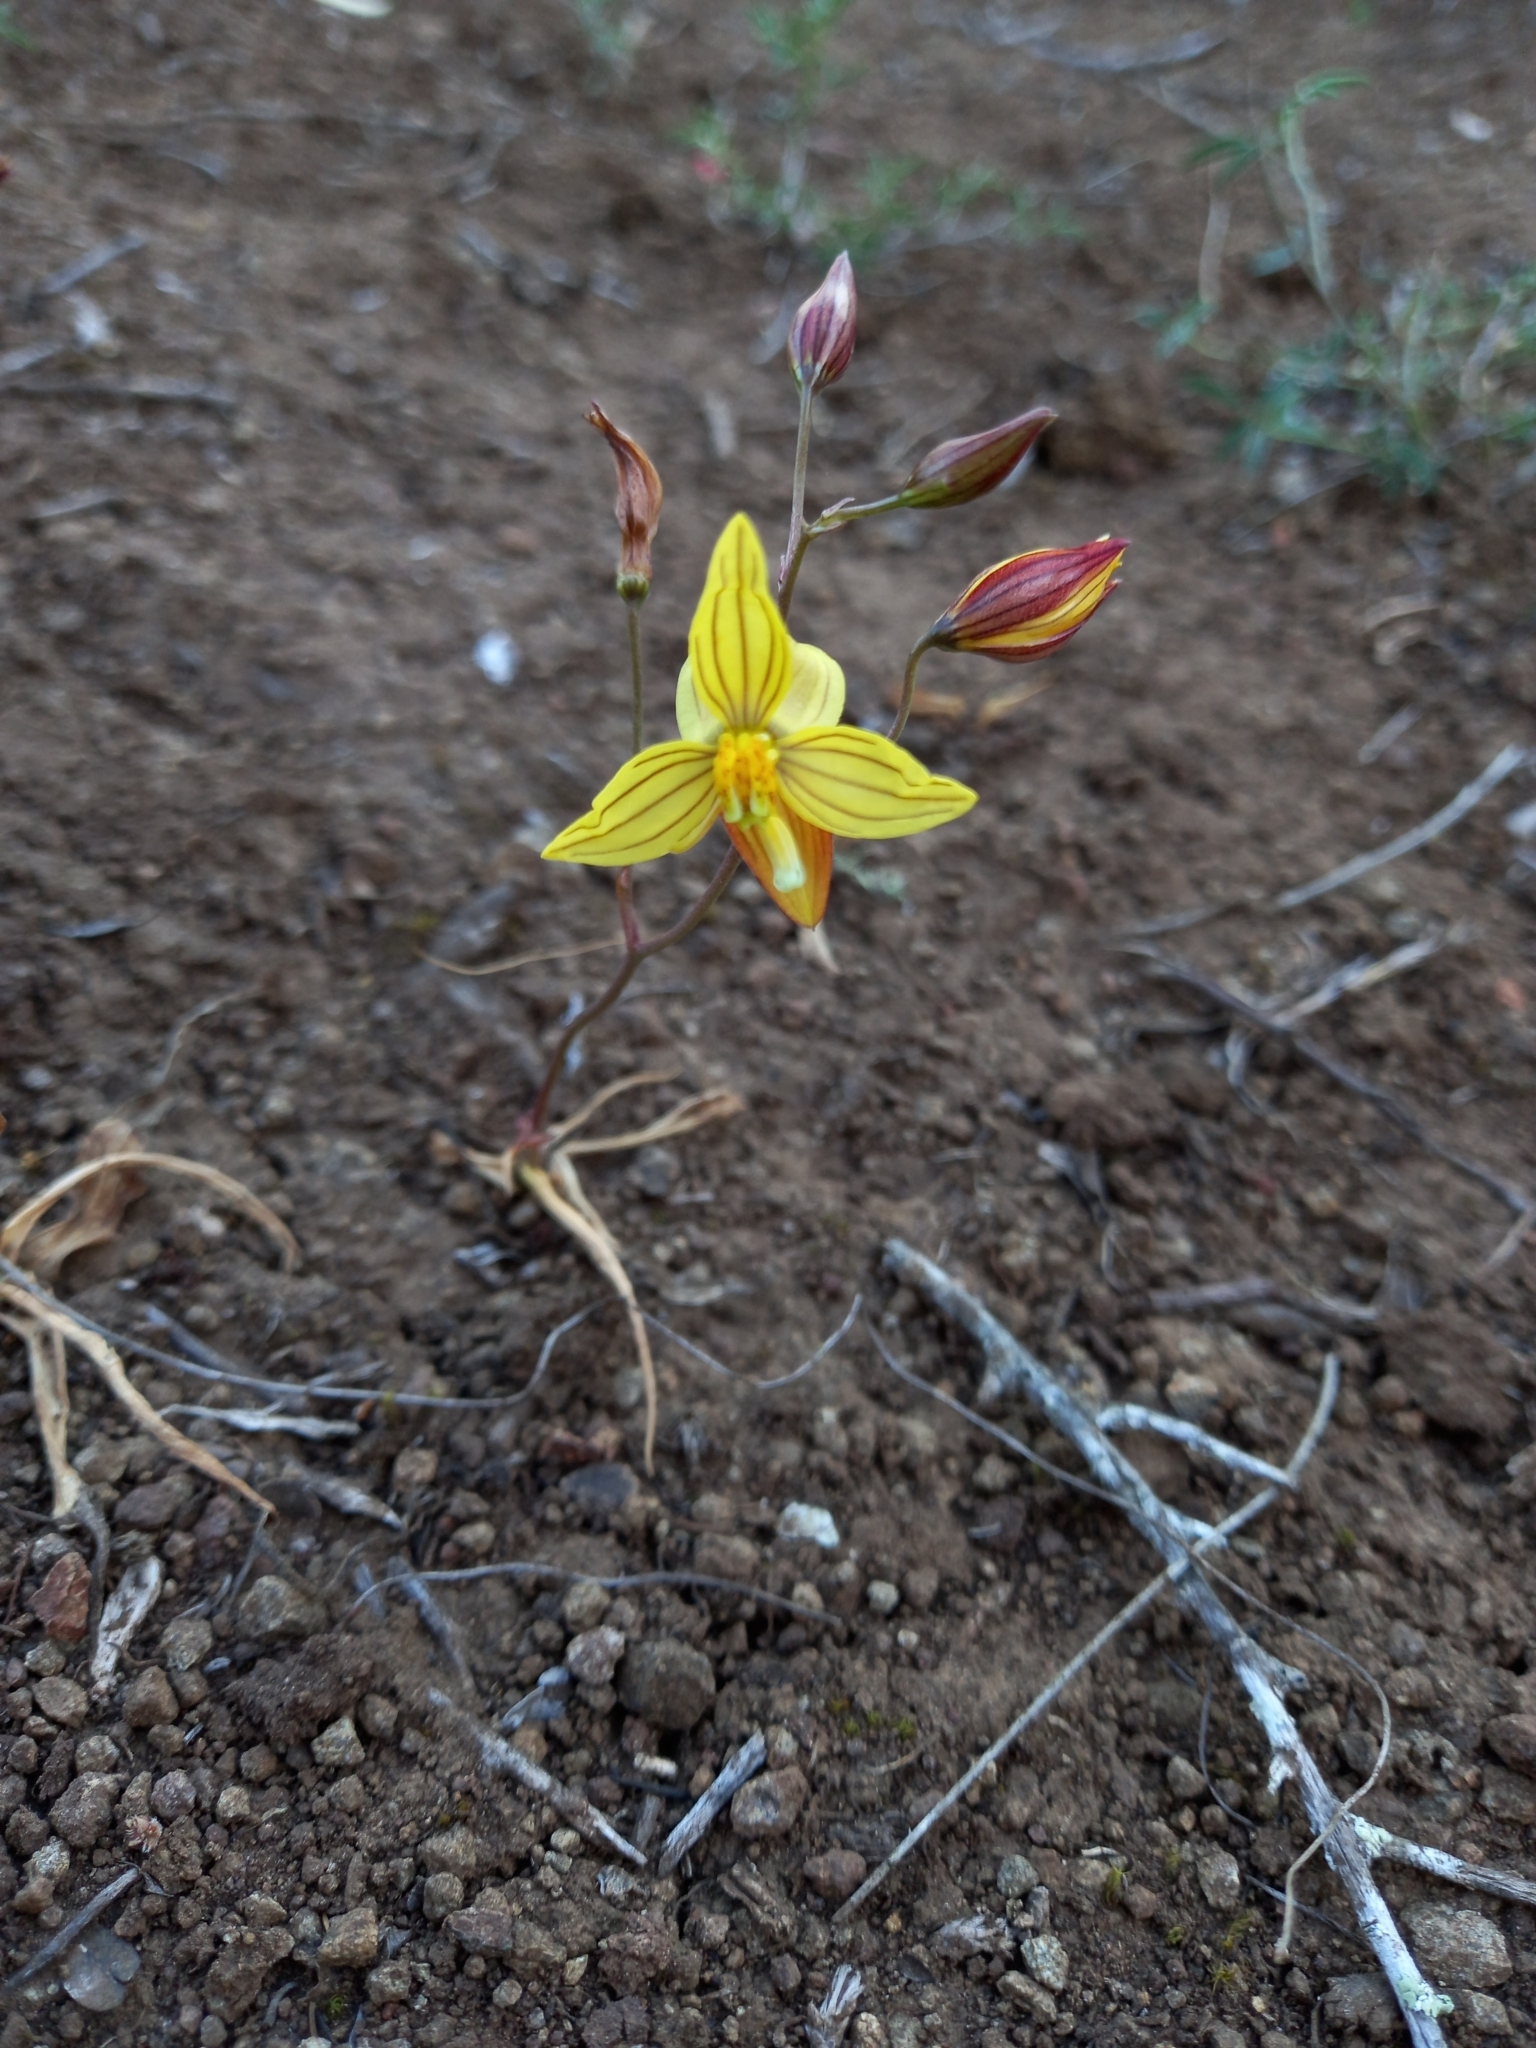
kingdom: Plantae
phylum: Tracheophyta
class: Liliopsida
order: Asparagales
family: Tecophilaeaceae
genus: Cyanella
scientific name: Cyanella lutea
